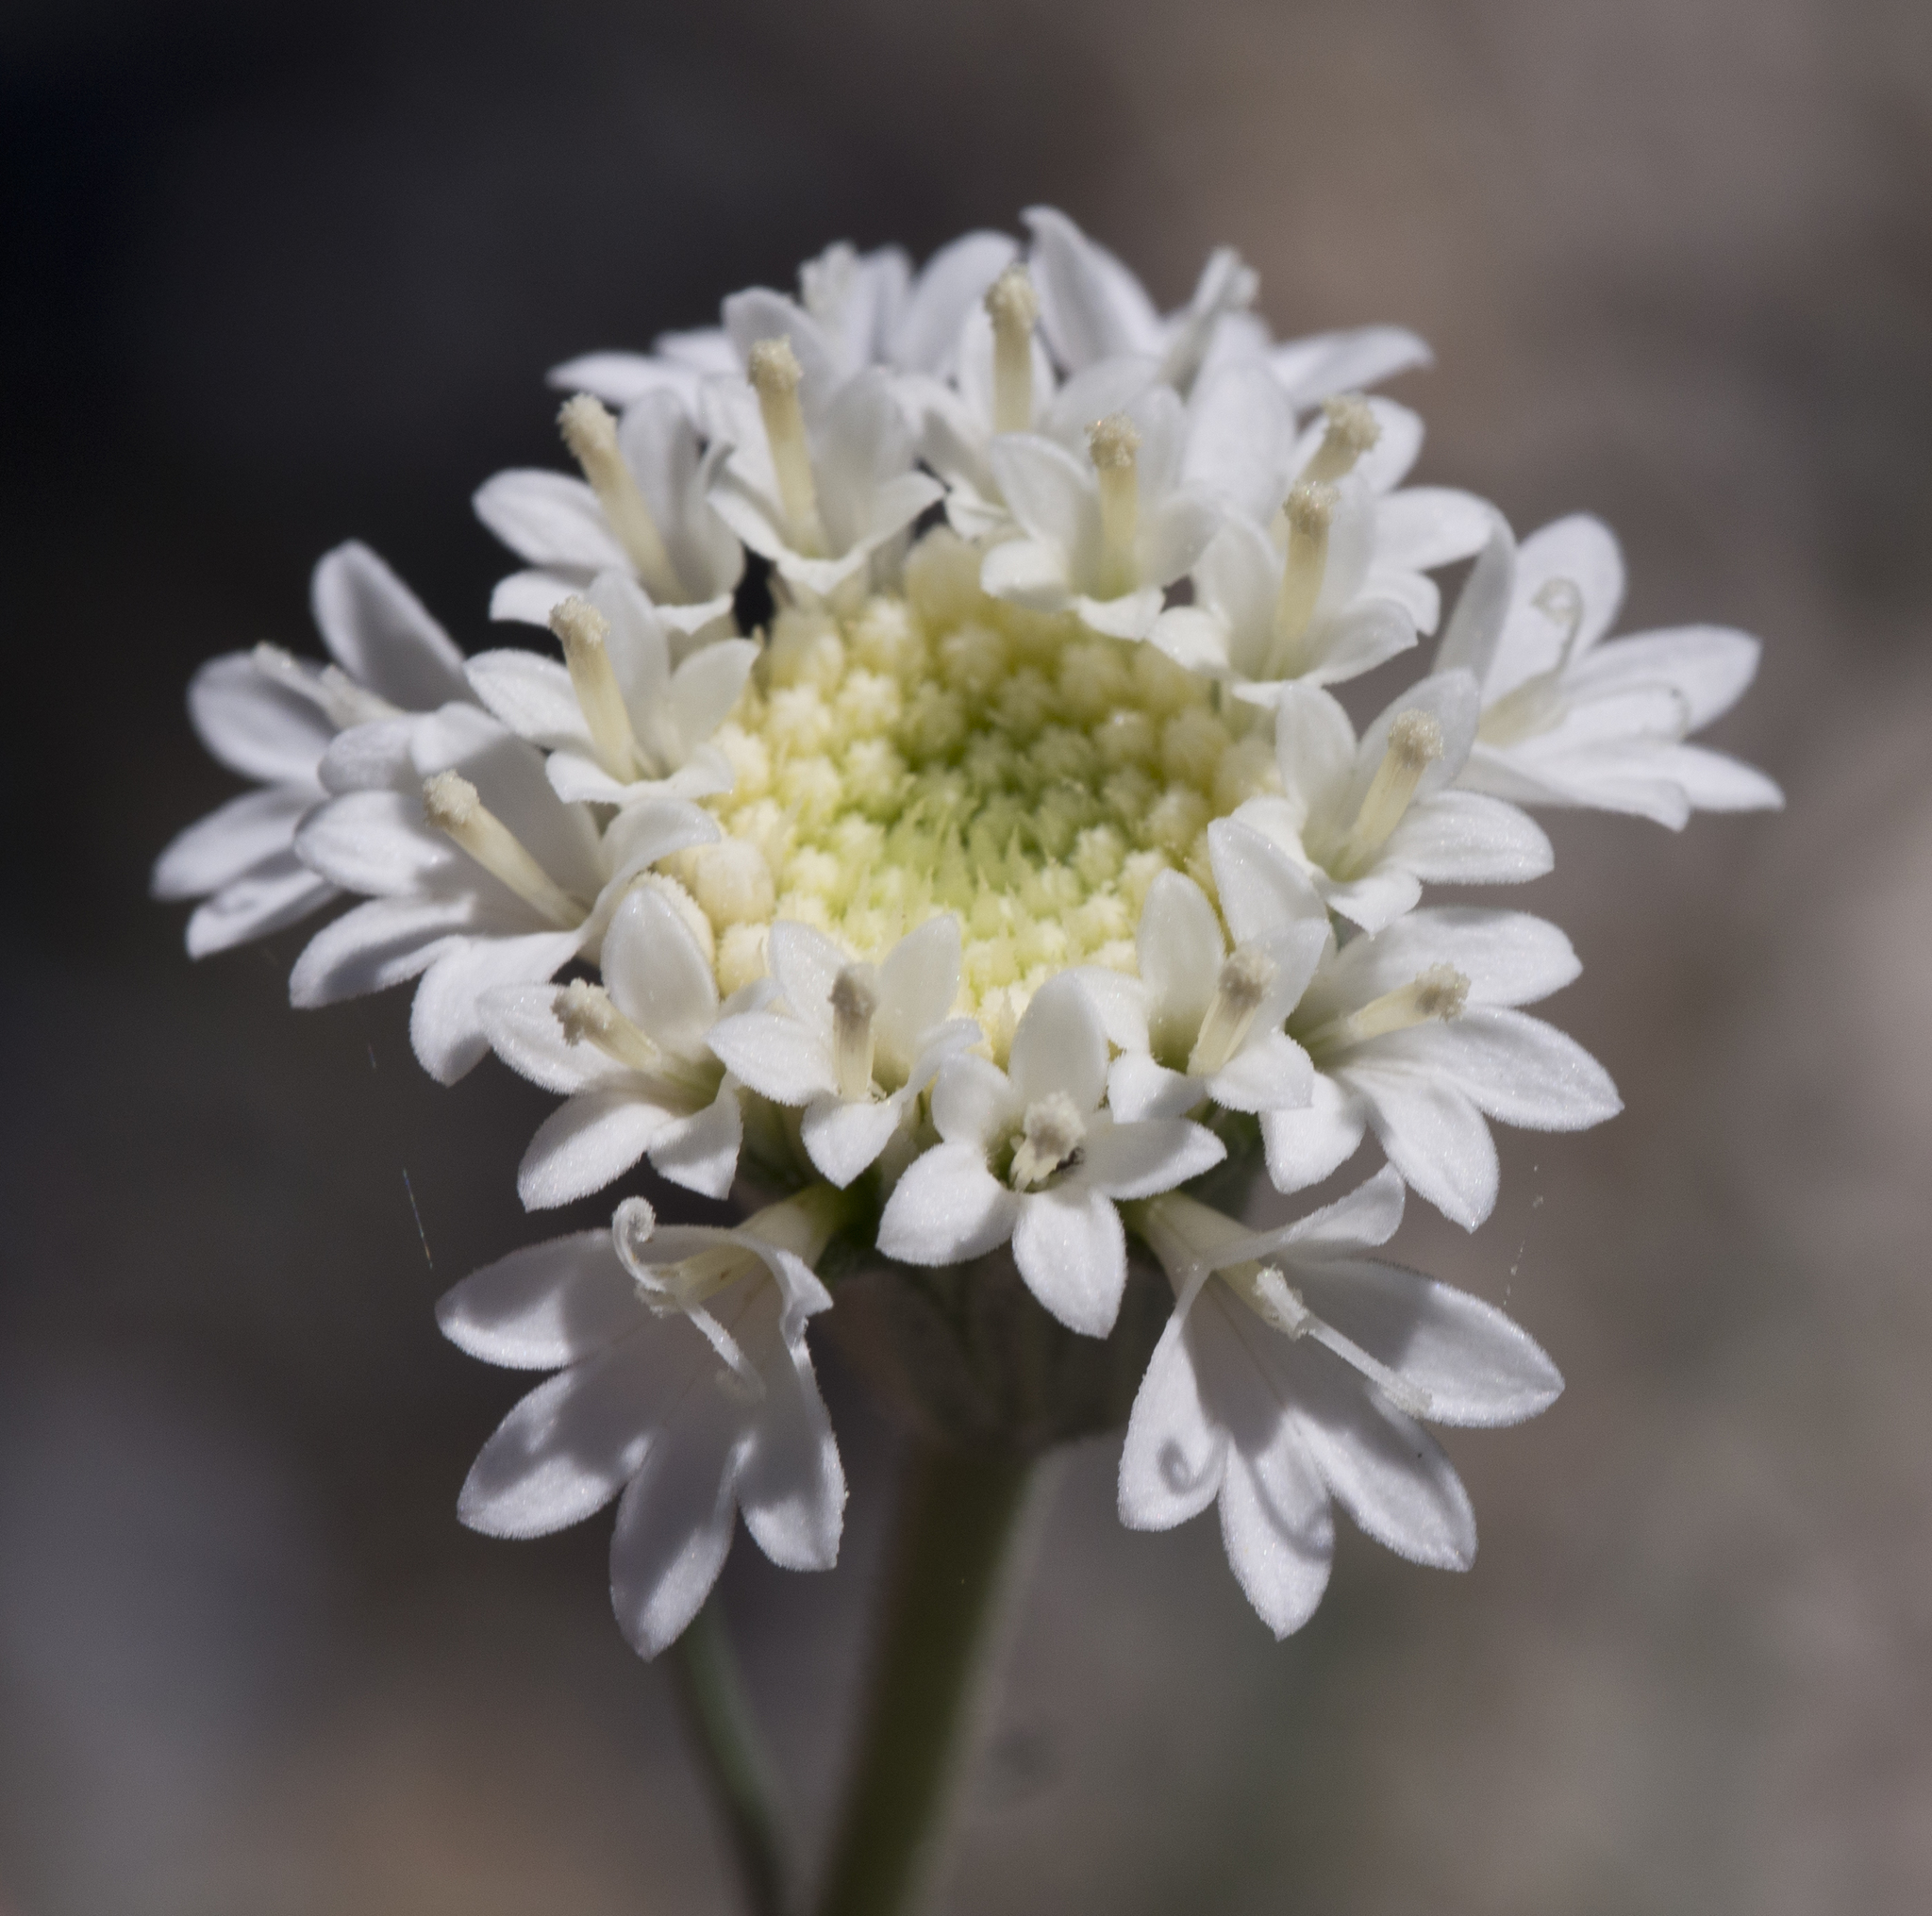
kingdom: Plantae
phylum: Tracheophyta
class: Magnoliopsida
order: Asterales
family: Asteraceae
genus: Chaenactis
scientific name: Chaenactis fremontii
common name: Fremont pincushion
